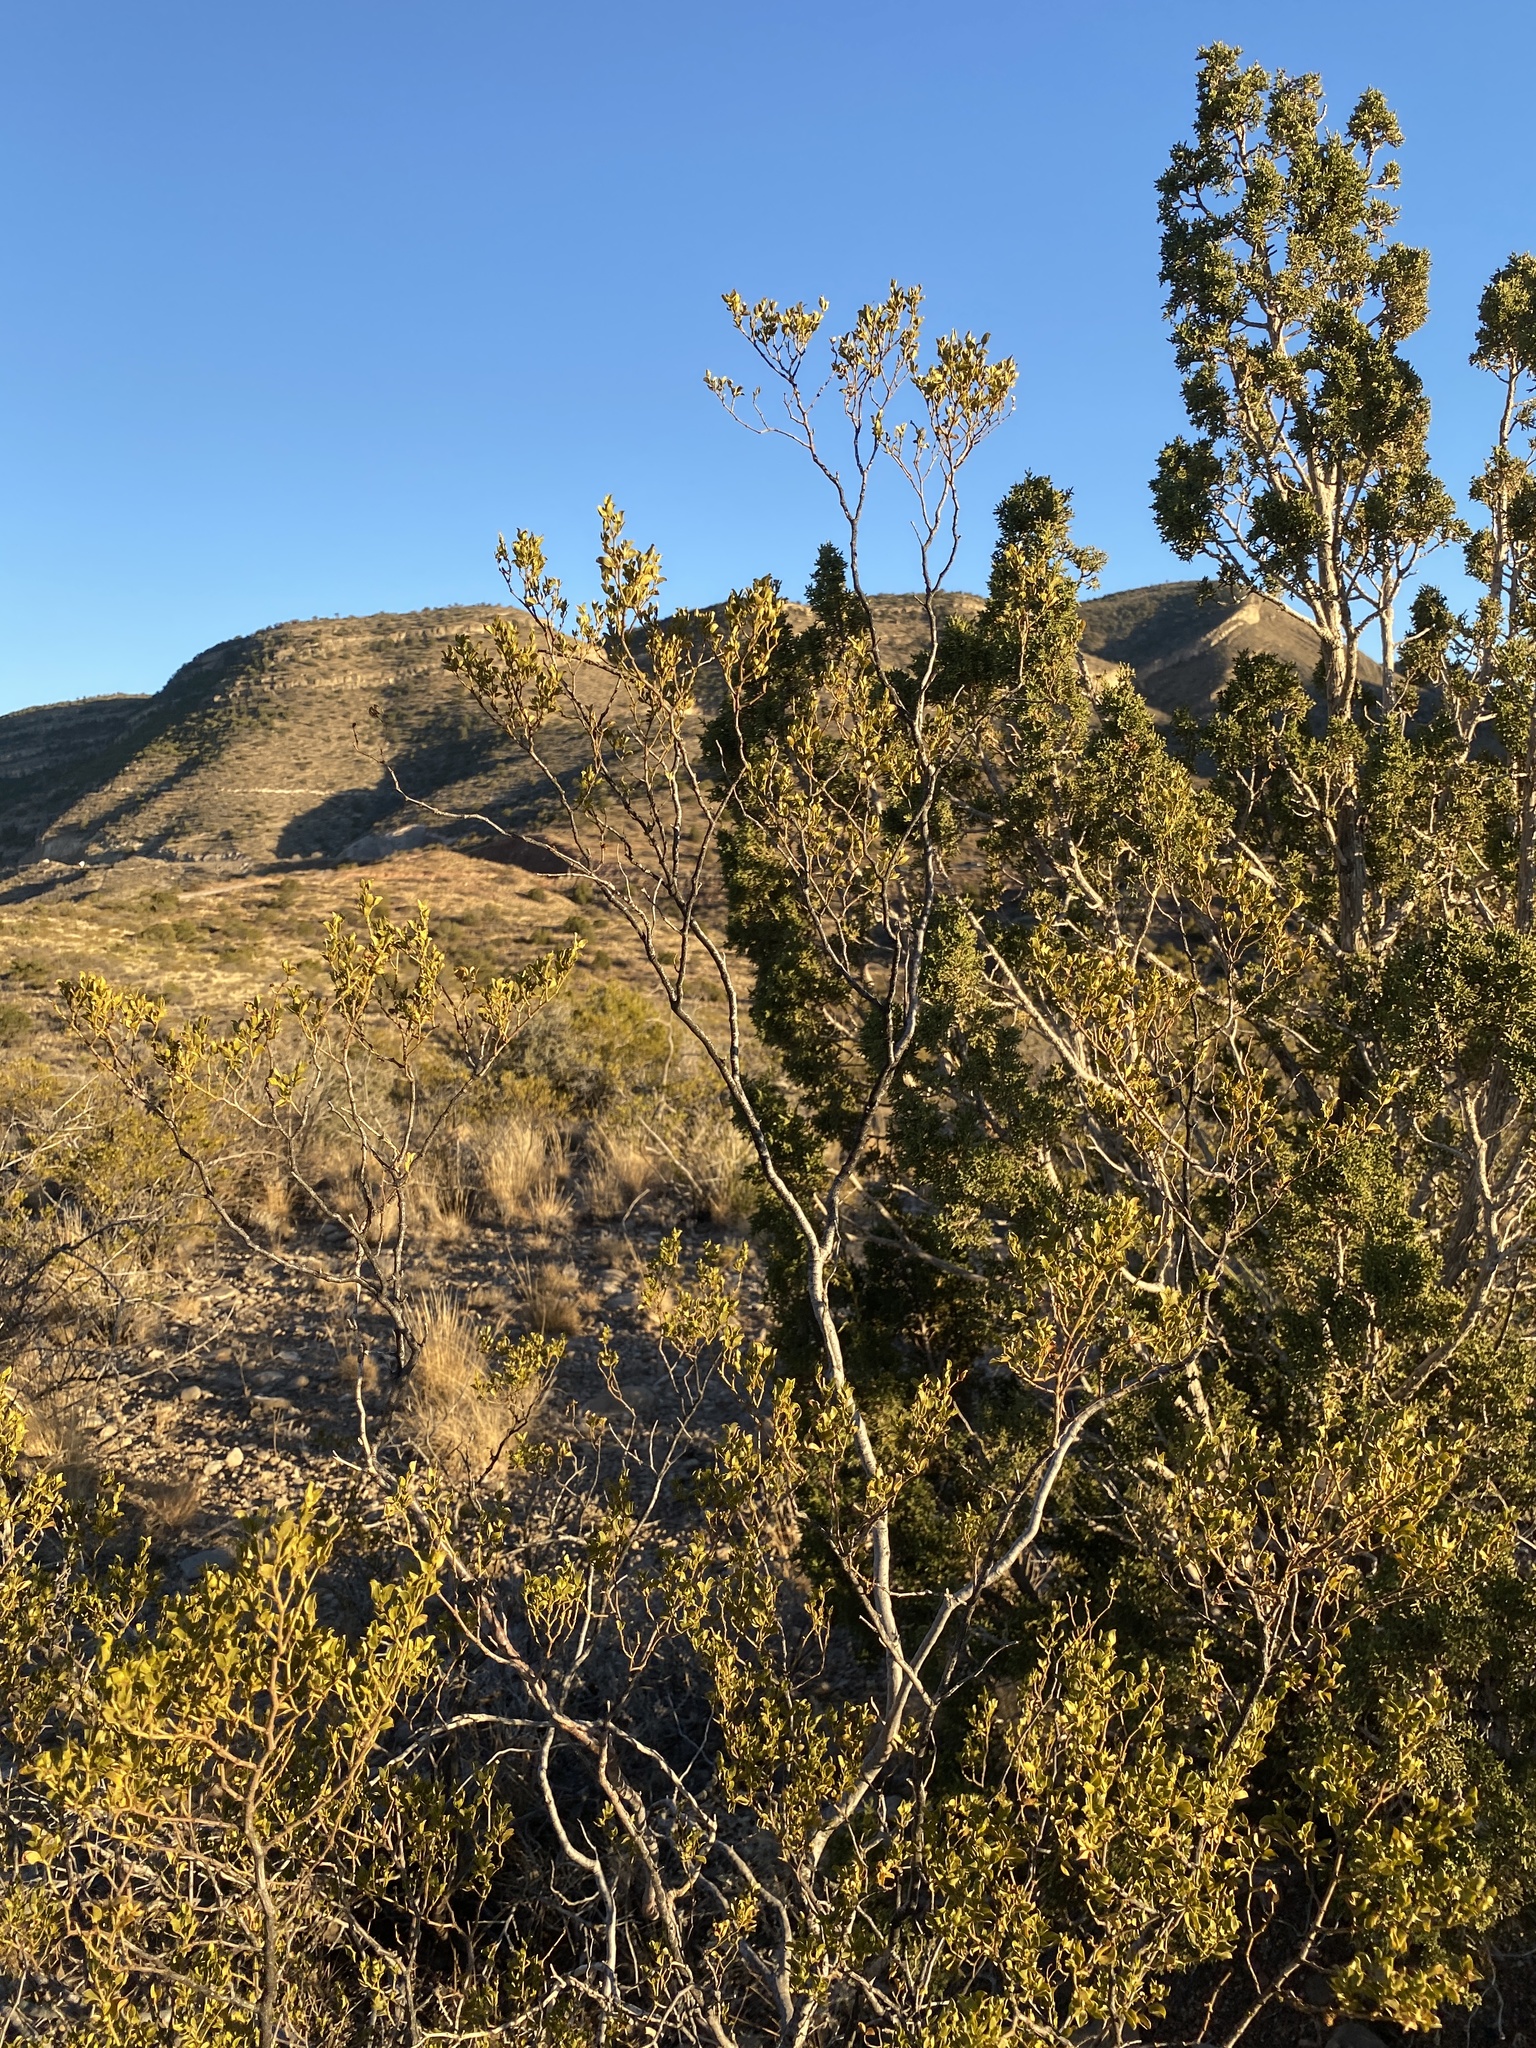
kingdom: Plantae
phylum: Tracheophyta
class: Magnoliopsida
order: Zygophyllales
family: Zygophyllaceae
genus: Larrea
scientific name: Larrea tridentata
